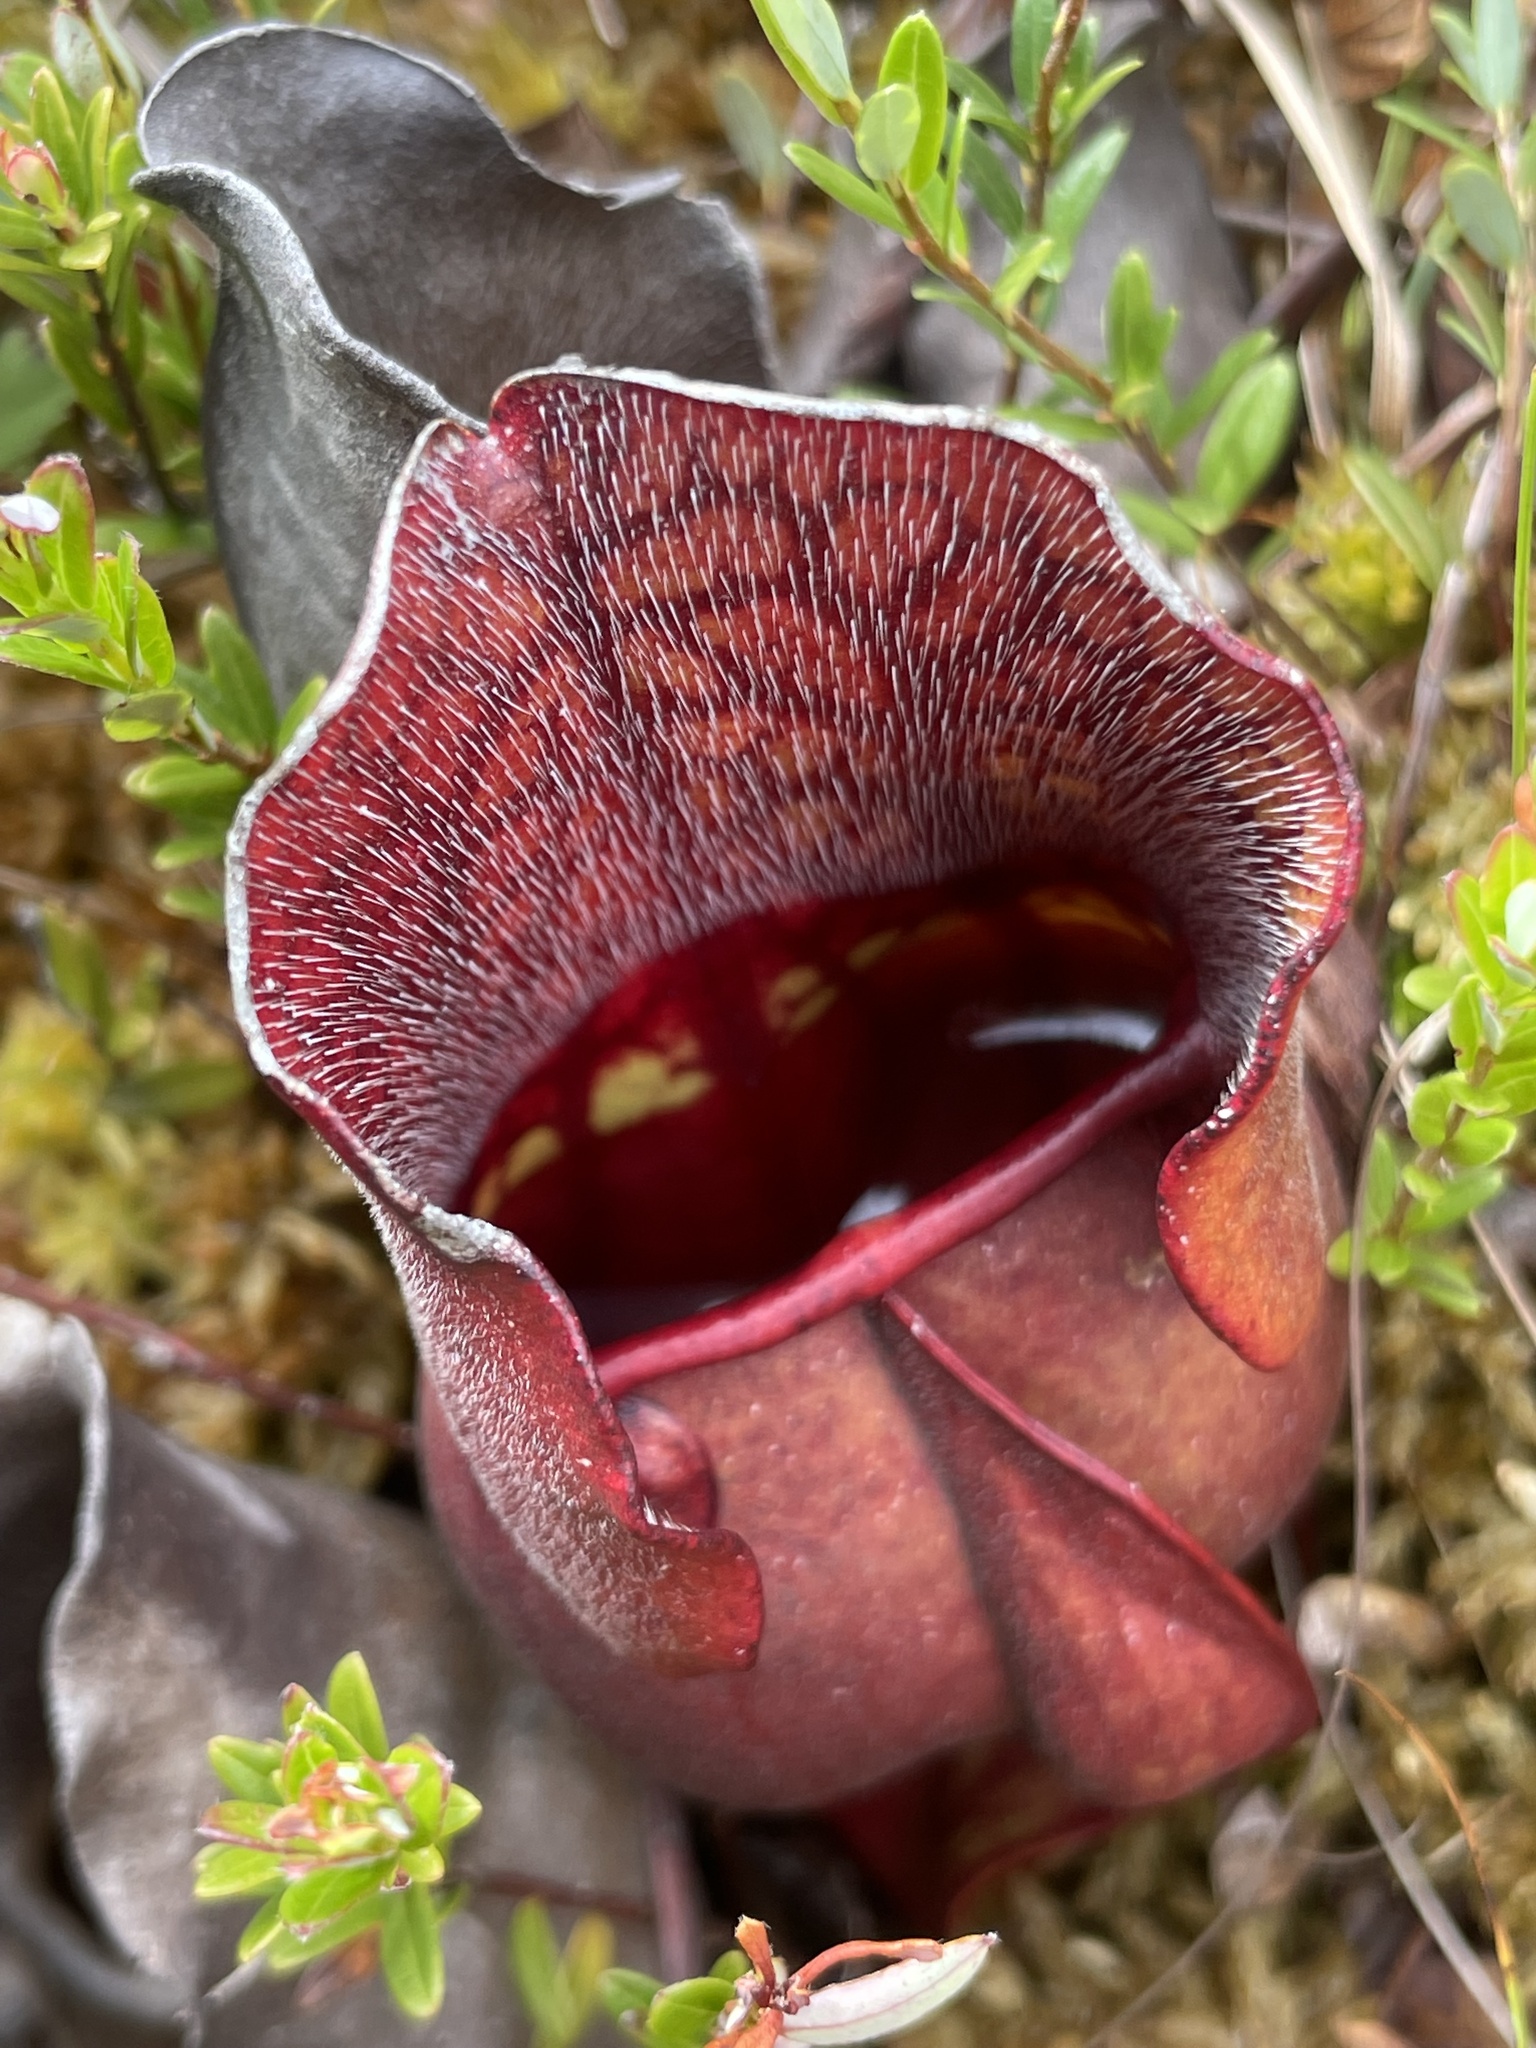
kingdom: Plantae
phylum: Tracheophyta
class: Magnoliopsida
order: Ericales
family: Sarraceniaceae
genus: Sarracenia
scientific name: Sarracenia purpurea
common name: Pitcherplant
